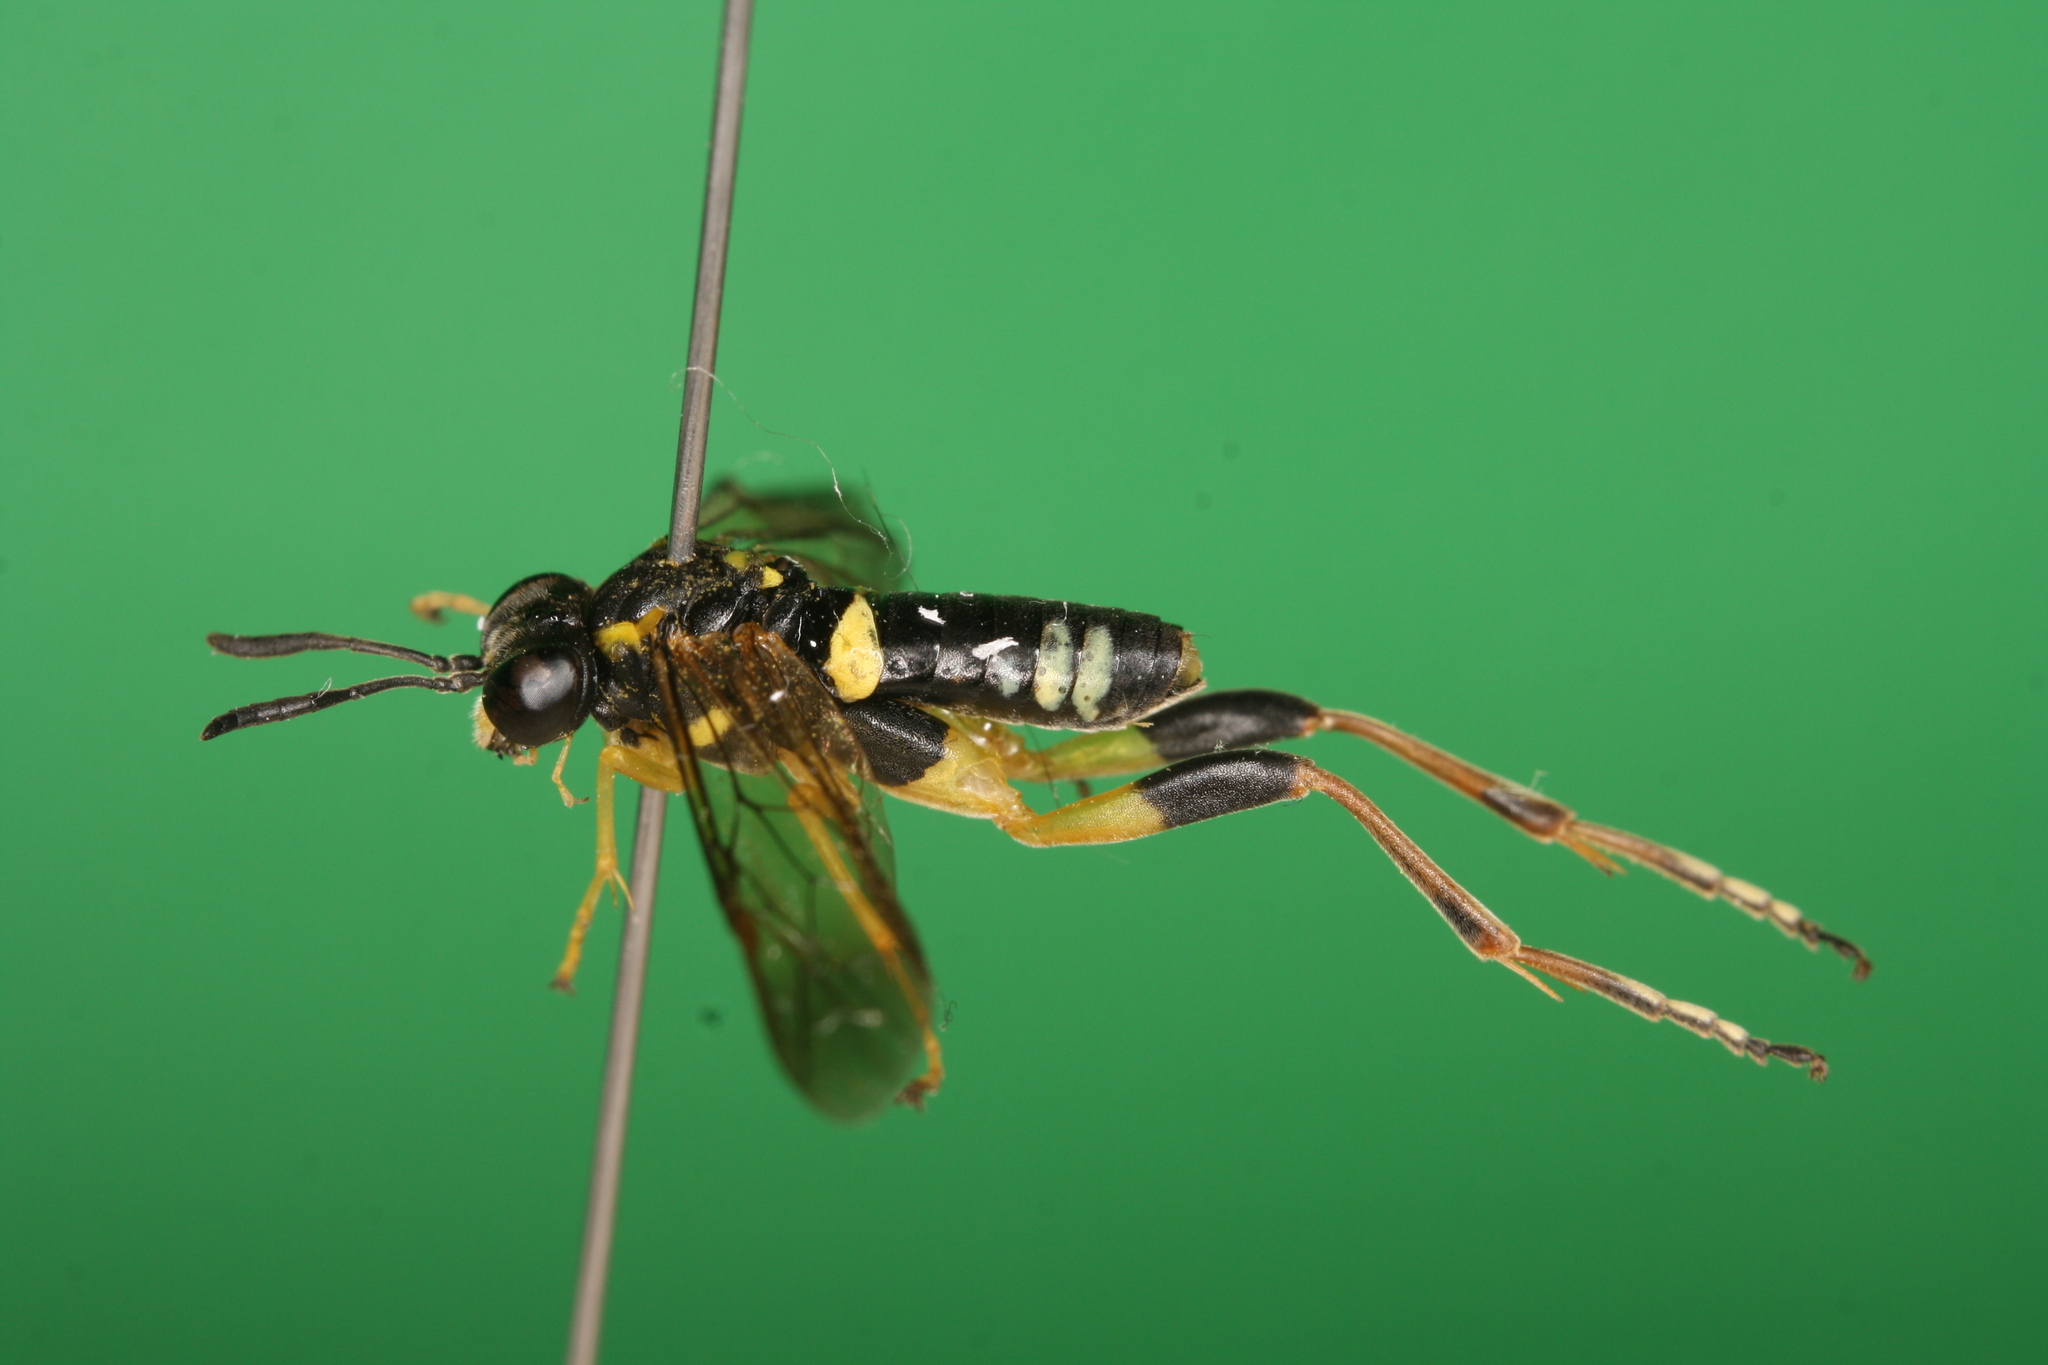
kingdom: Animalia
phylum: Arthropoda
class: Insecta
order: Hymenoptera
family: Tenthredinidae
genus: Macrophya
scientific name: Macrophya postica
